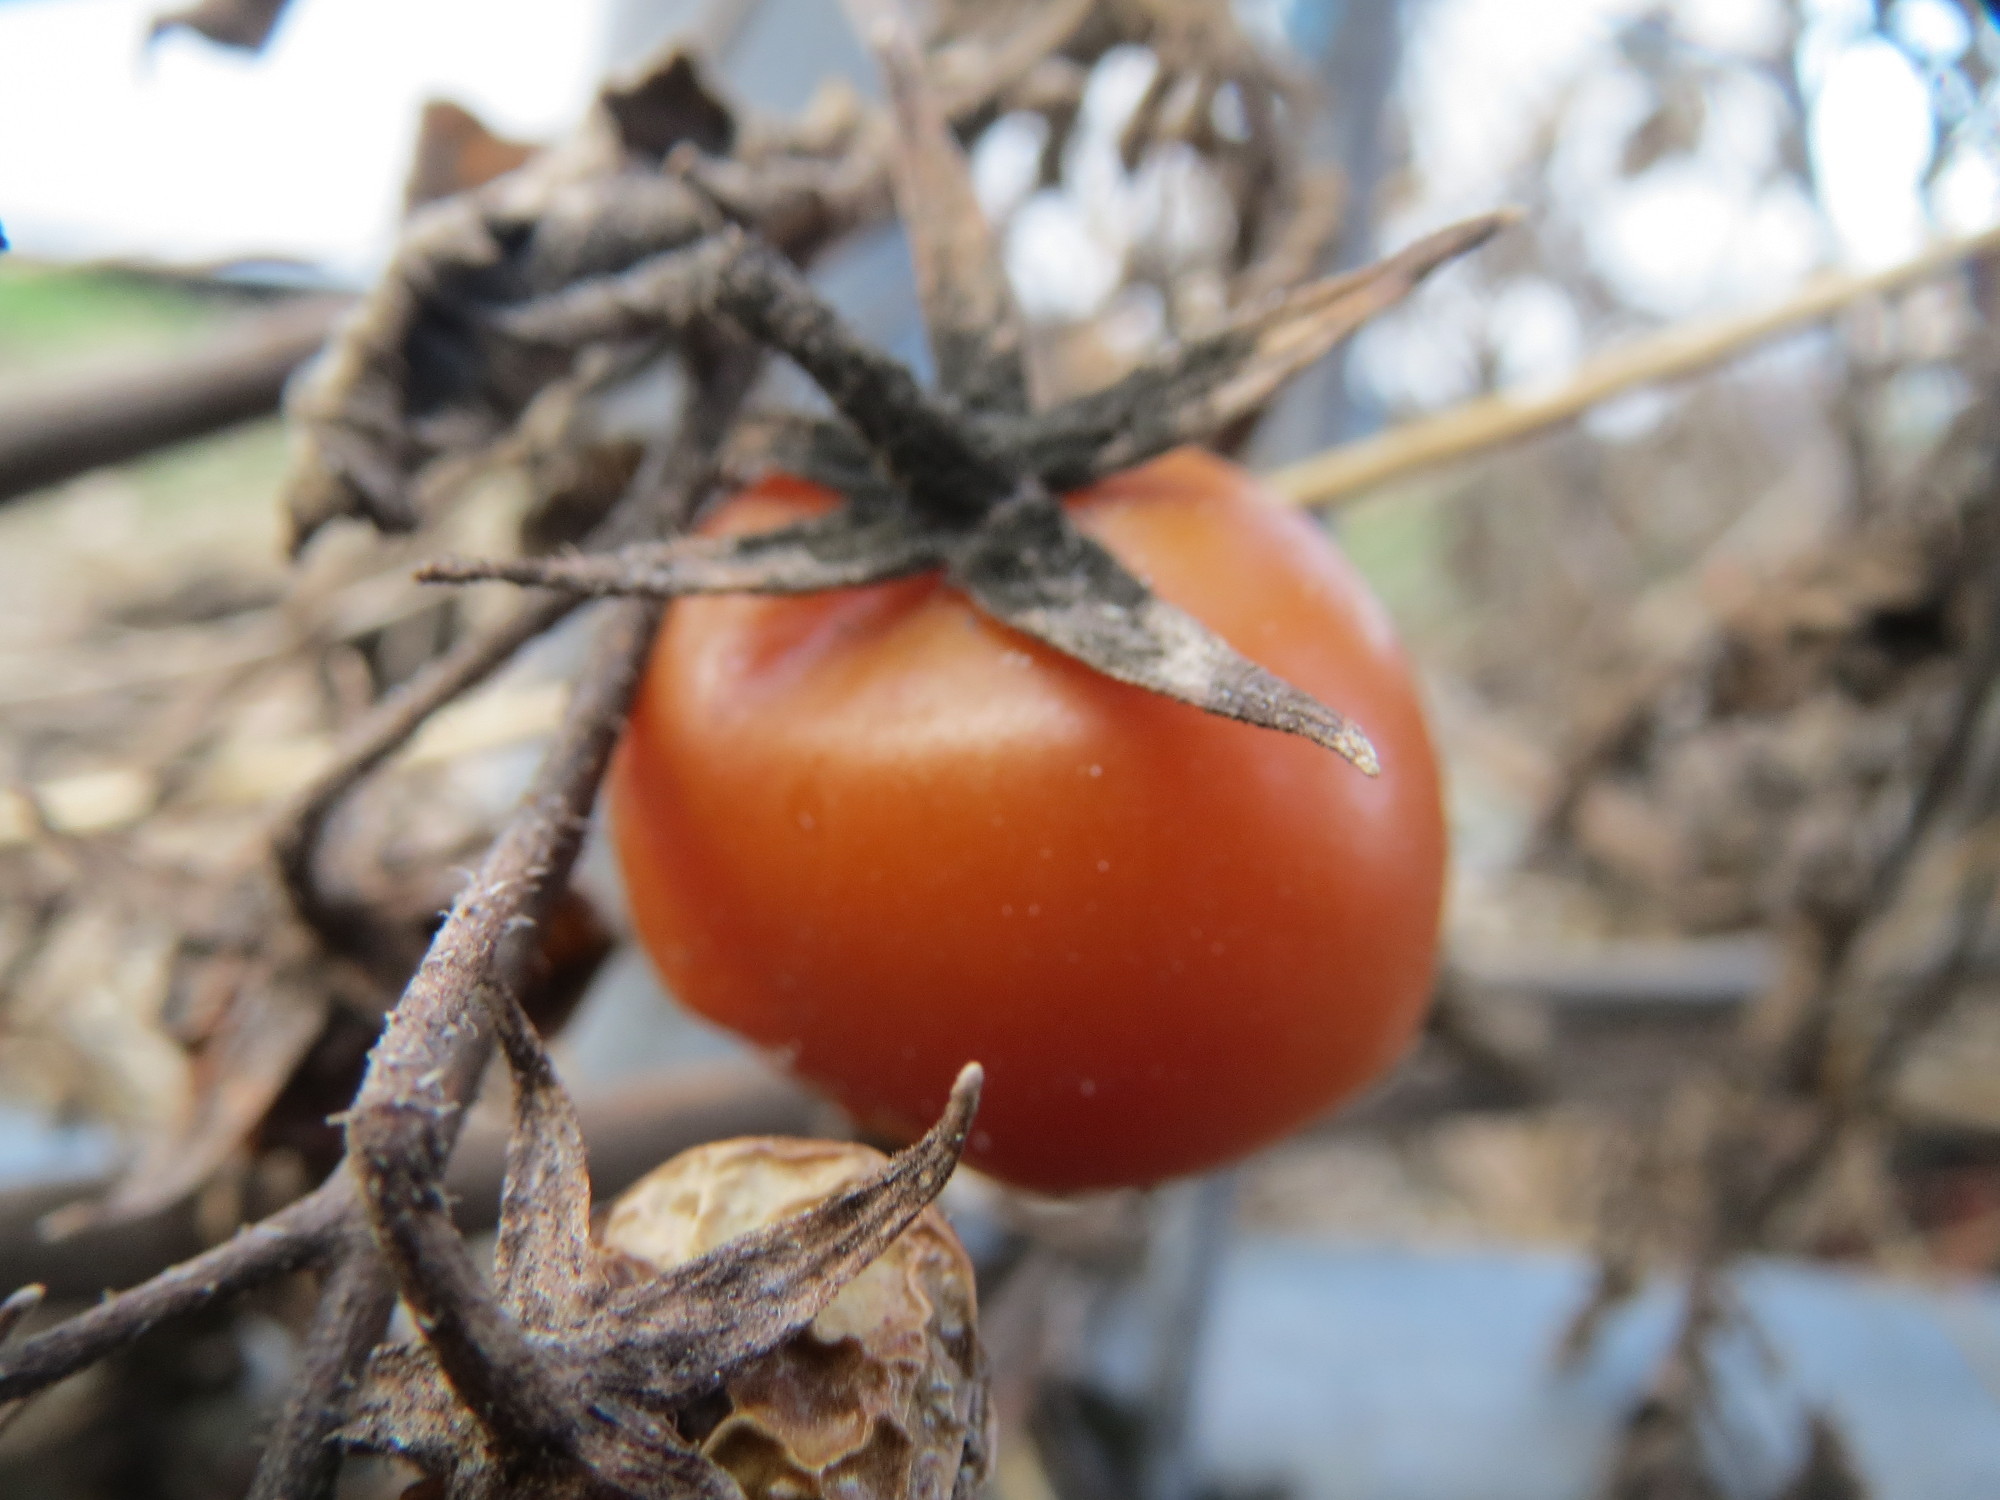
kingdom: Plantae
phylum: Tracheophyta
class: Magnoliopsida
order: Solanales
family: Solanaceae
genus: Solanum
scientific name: Solanum lycopersicum
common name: Garden tomato
